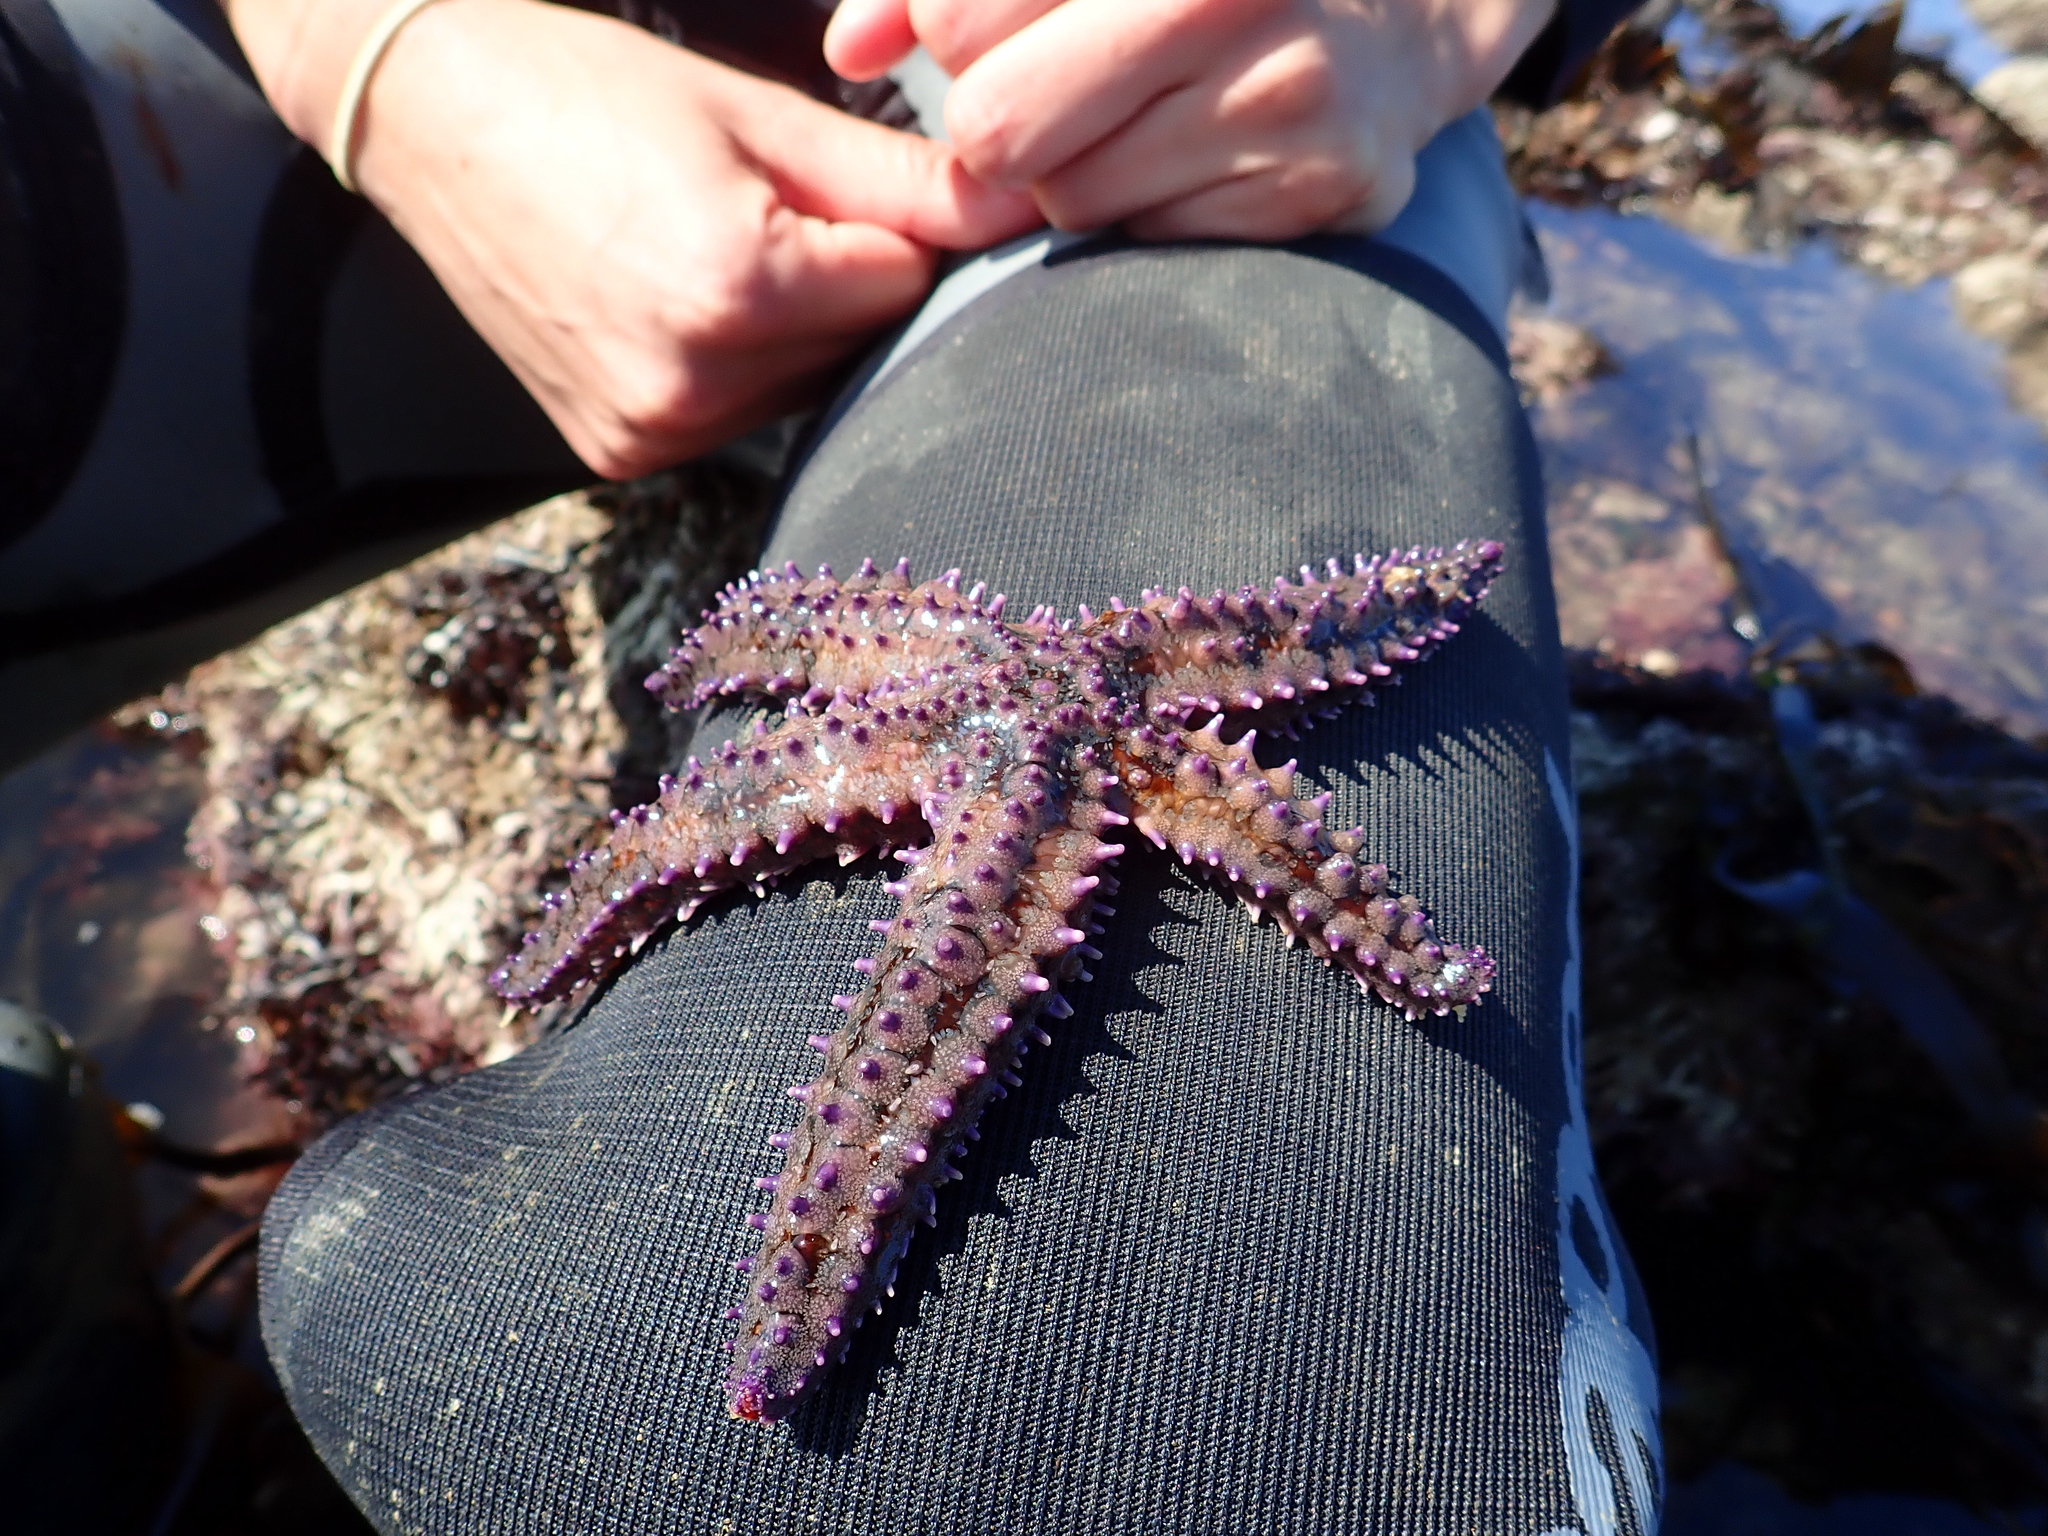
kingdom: Animalia
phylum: Echinodermata
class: Asteroidea
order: Forcipulatida
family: Asteriidae
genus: Marthasterias
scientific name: Marthasterias glacialis
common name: Spiny starfish
